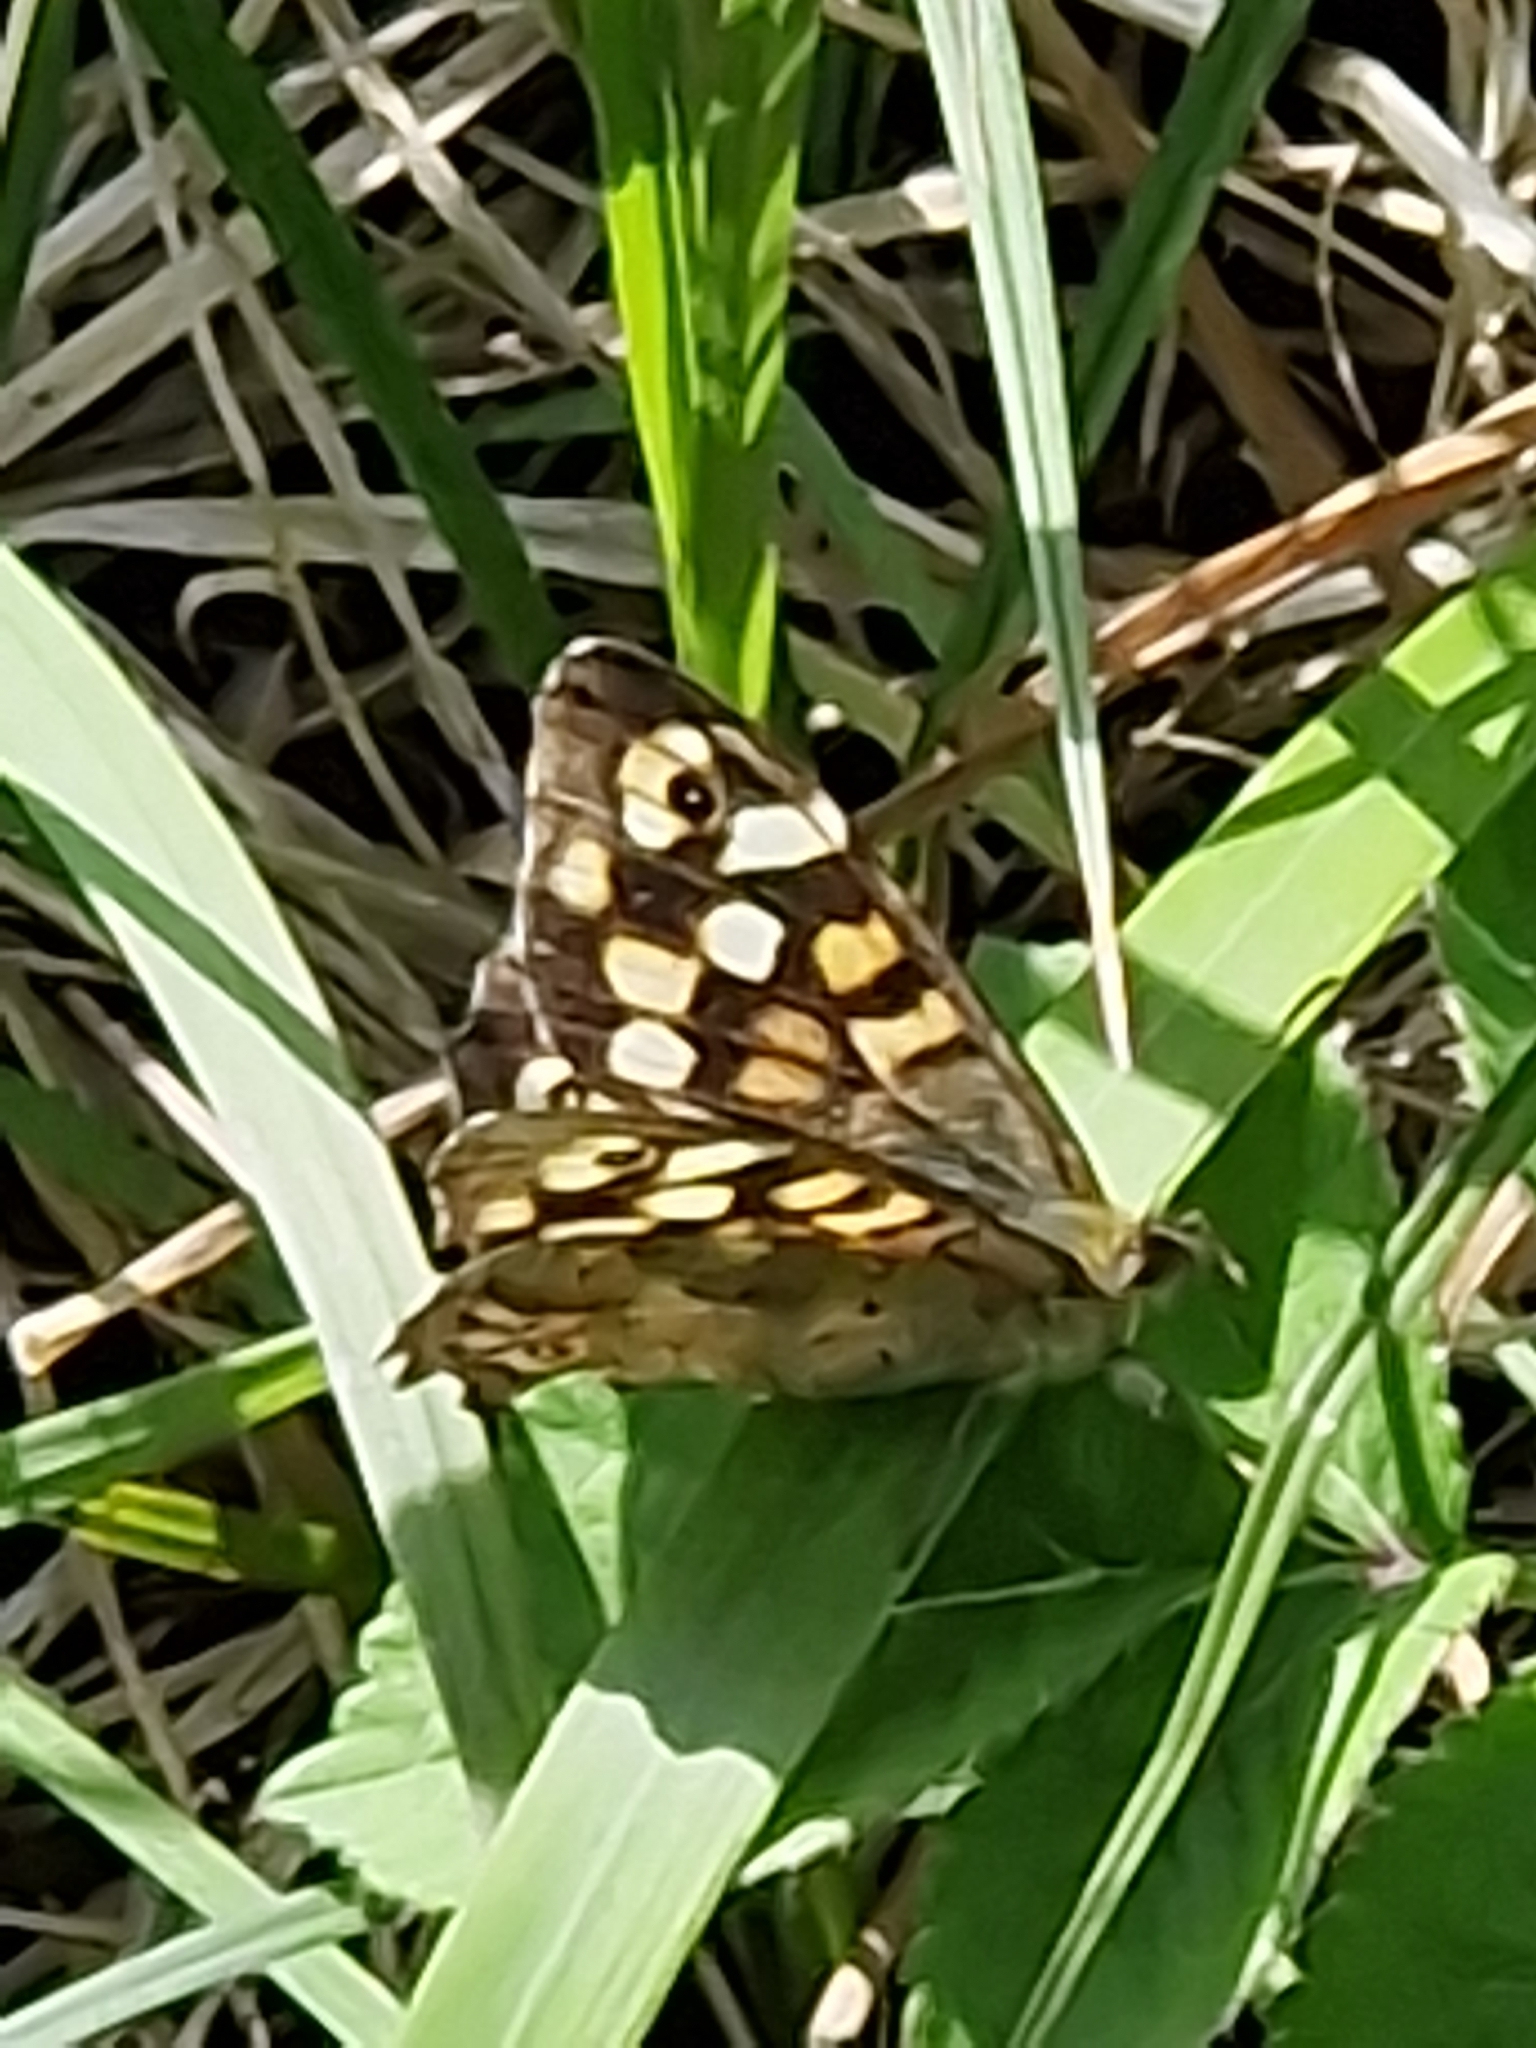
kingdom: Animalia
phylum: Arthropoda
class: Insecta
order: Lepidoptera
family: Nymphalidae
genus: Pararge
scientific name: Pararge aegeria
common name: Speckled wood
